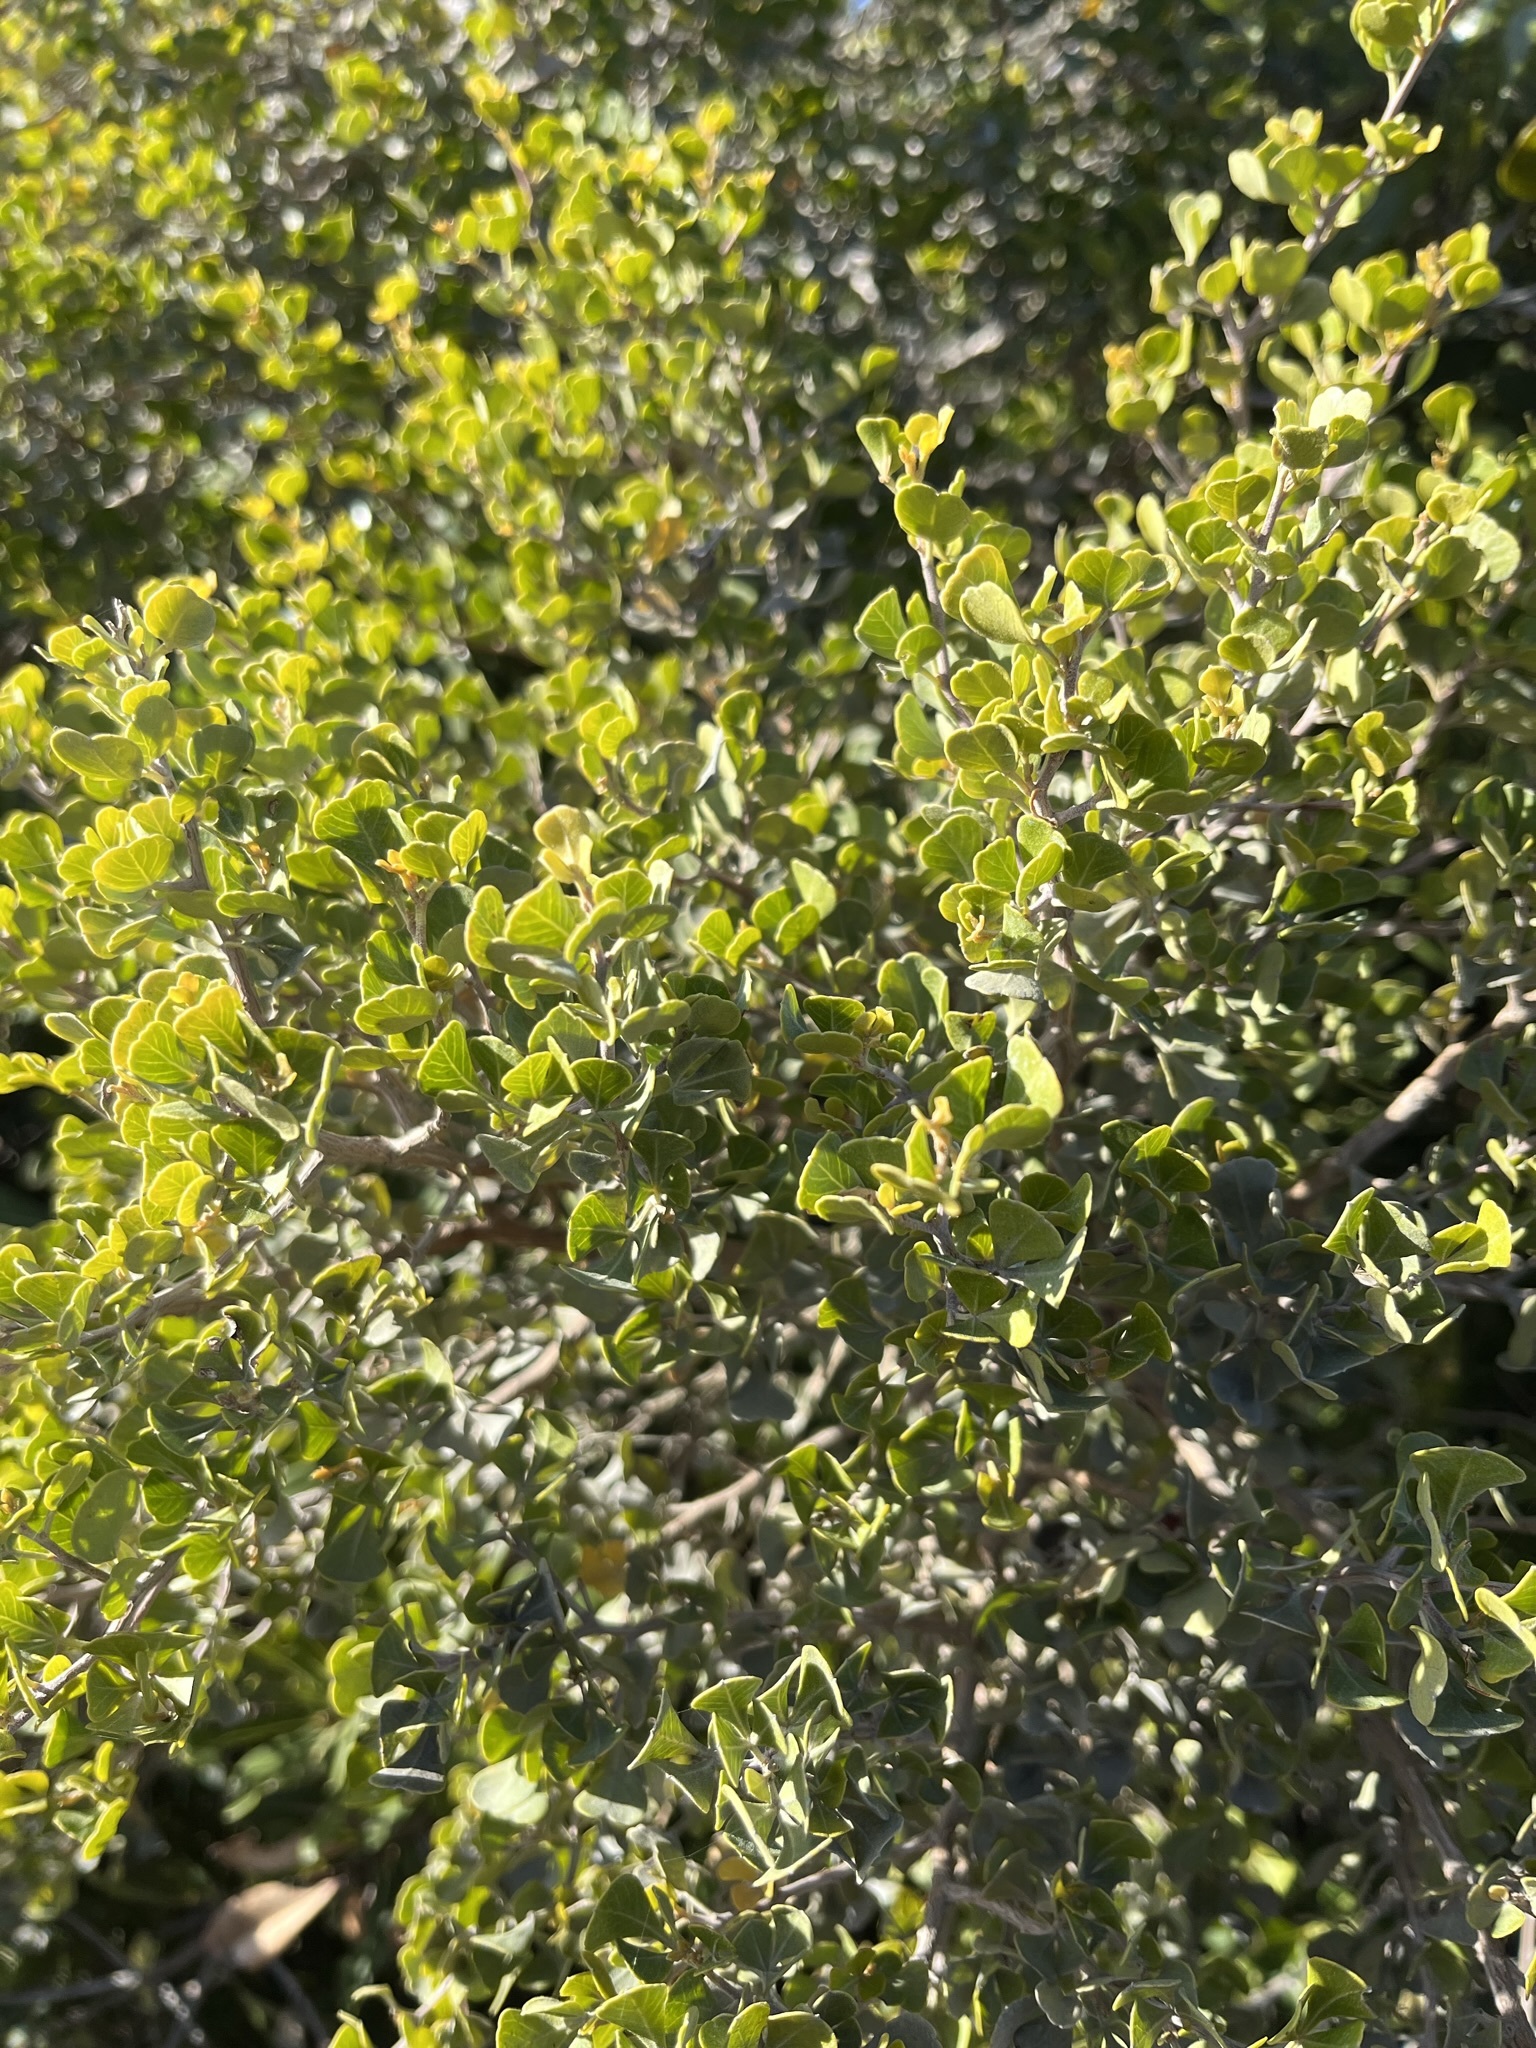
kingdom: Plantae
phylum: Tracheophyta
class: Magnoliopsida
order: Sapindales
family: Anacardiaceae
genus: Searsia
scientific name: Searsia glauca
